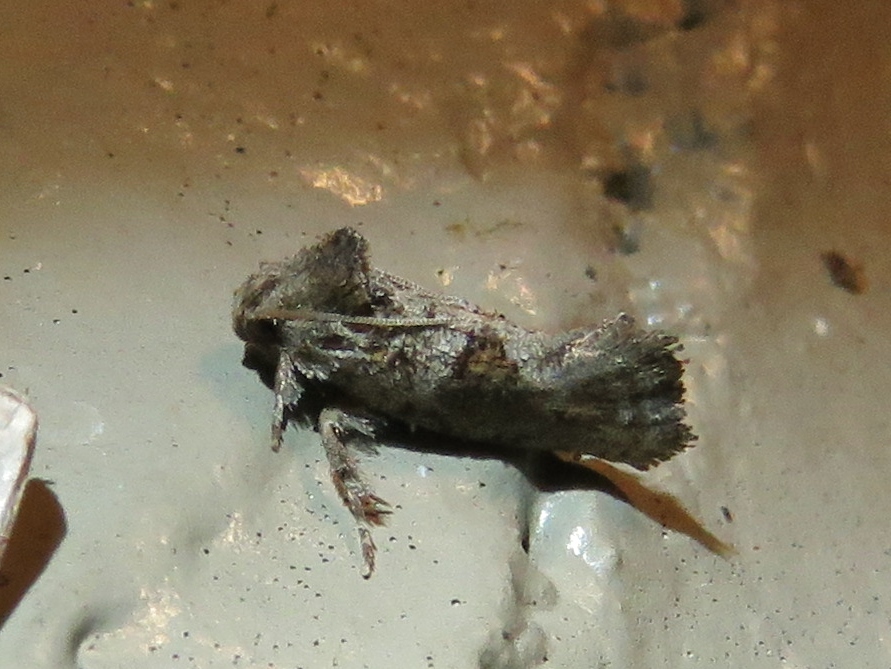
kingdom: Animalia
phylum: Arthropoda
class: Insecta
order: Lepidoptera
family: Tineidae
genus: Acrolophus
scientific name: Acrolophus piger
